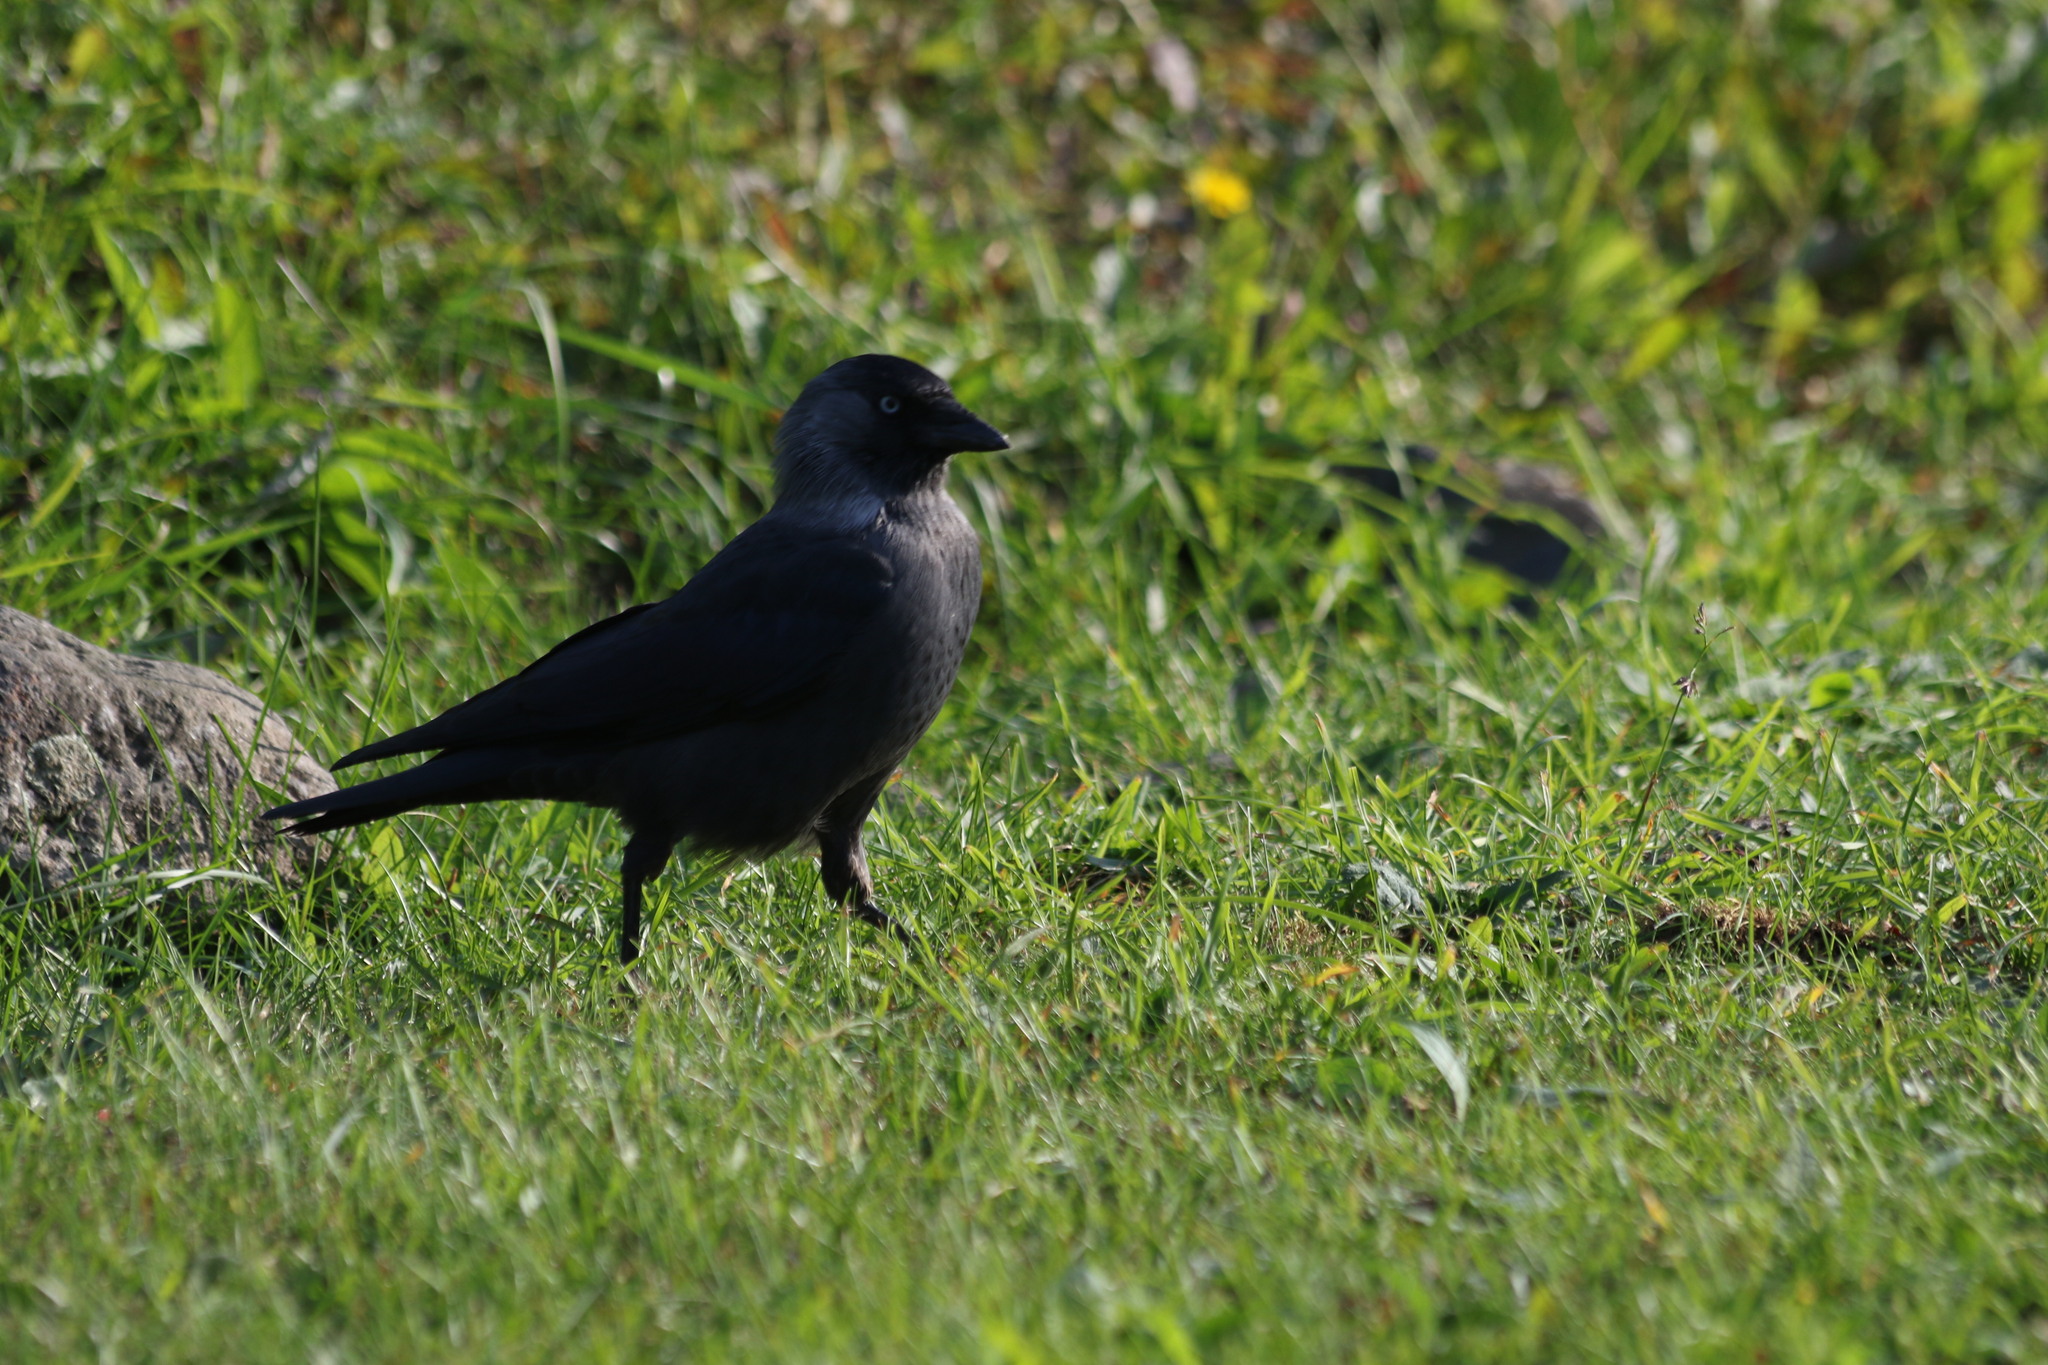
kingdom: Animalia
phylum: Chordata
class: Aves
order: Passeriformes
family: Corvidae
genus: Coloeus
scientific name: Coloeus monedula
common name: Western jackdaw
